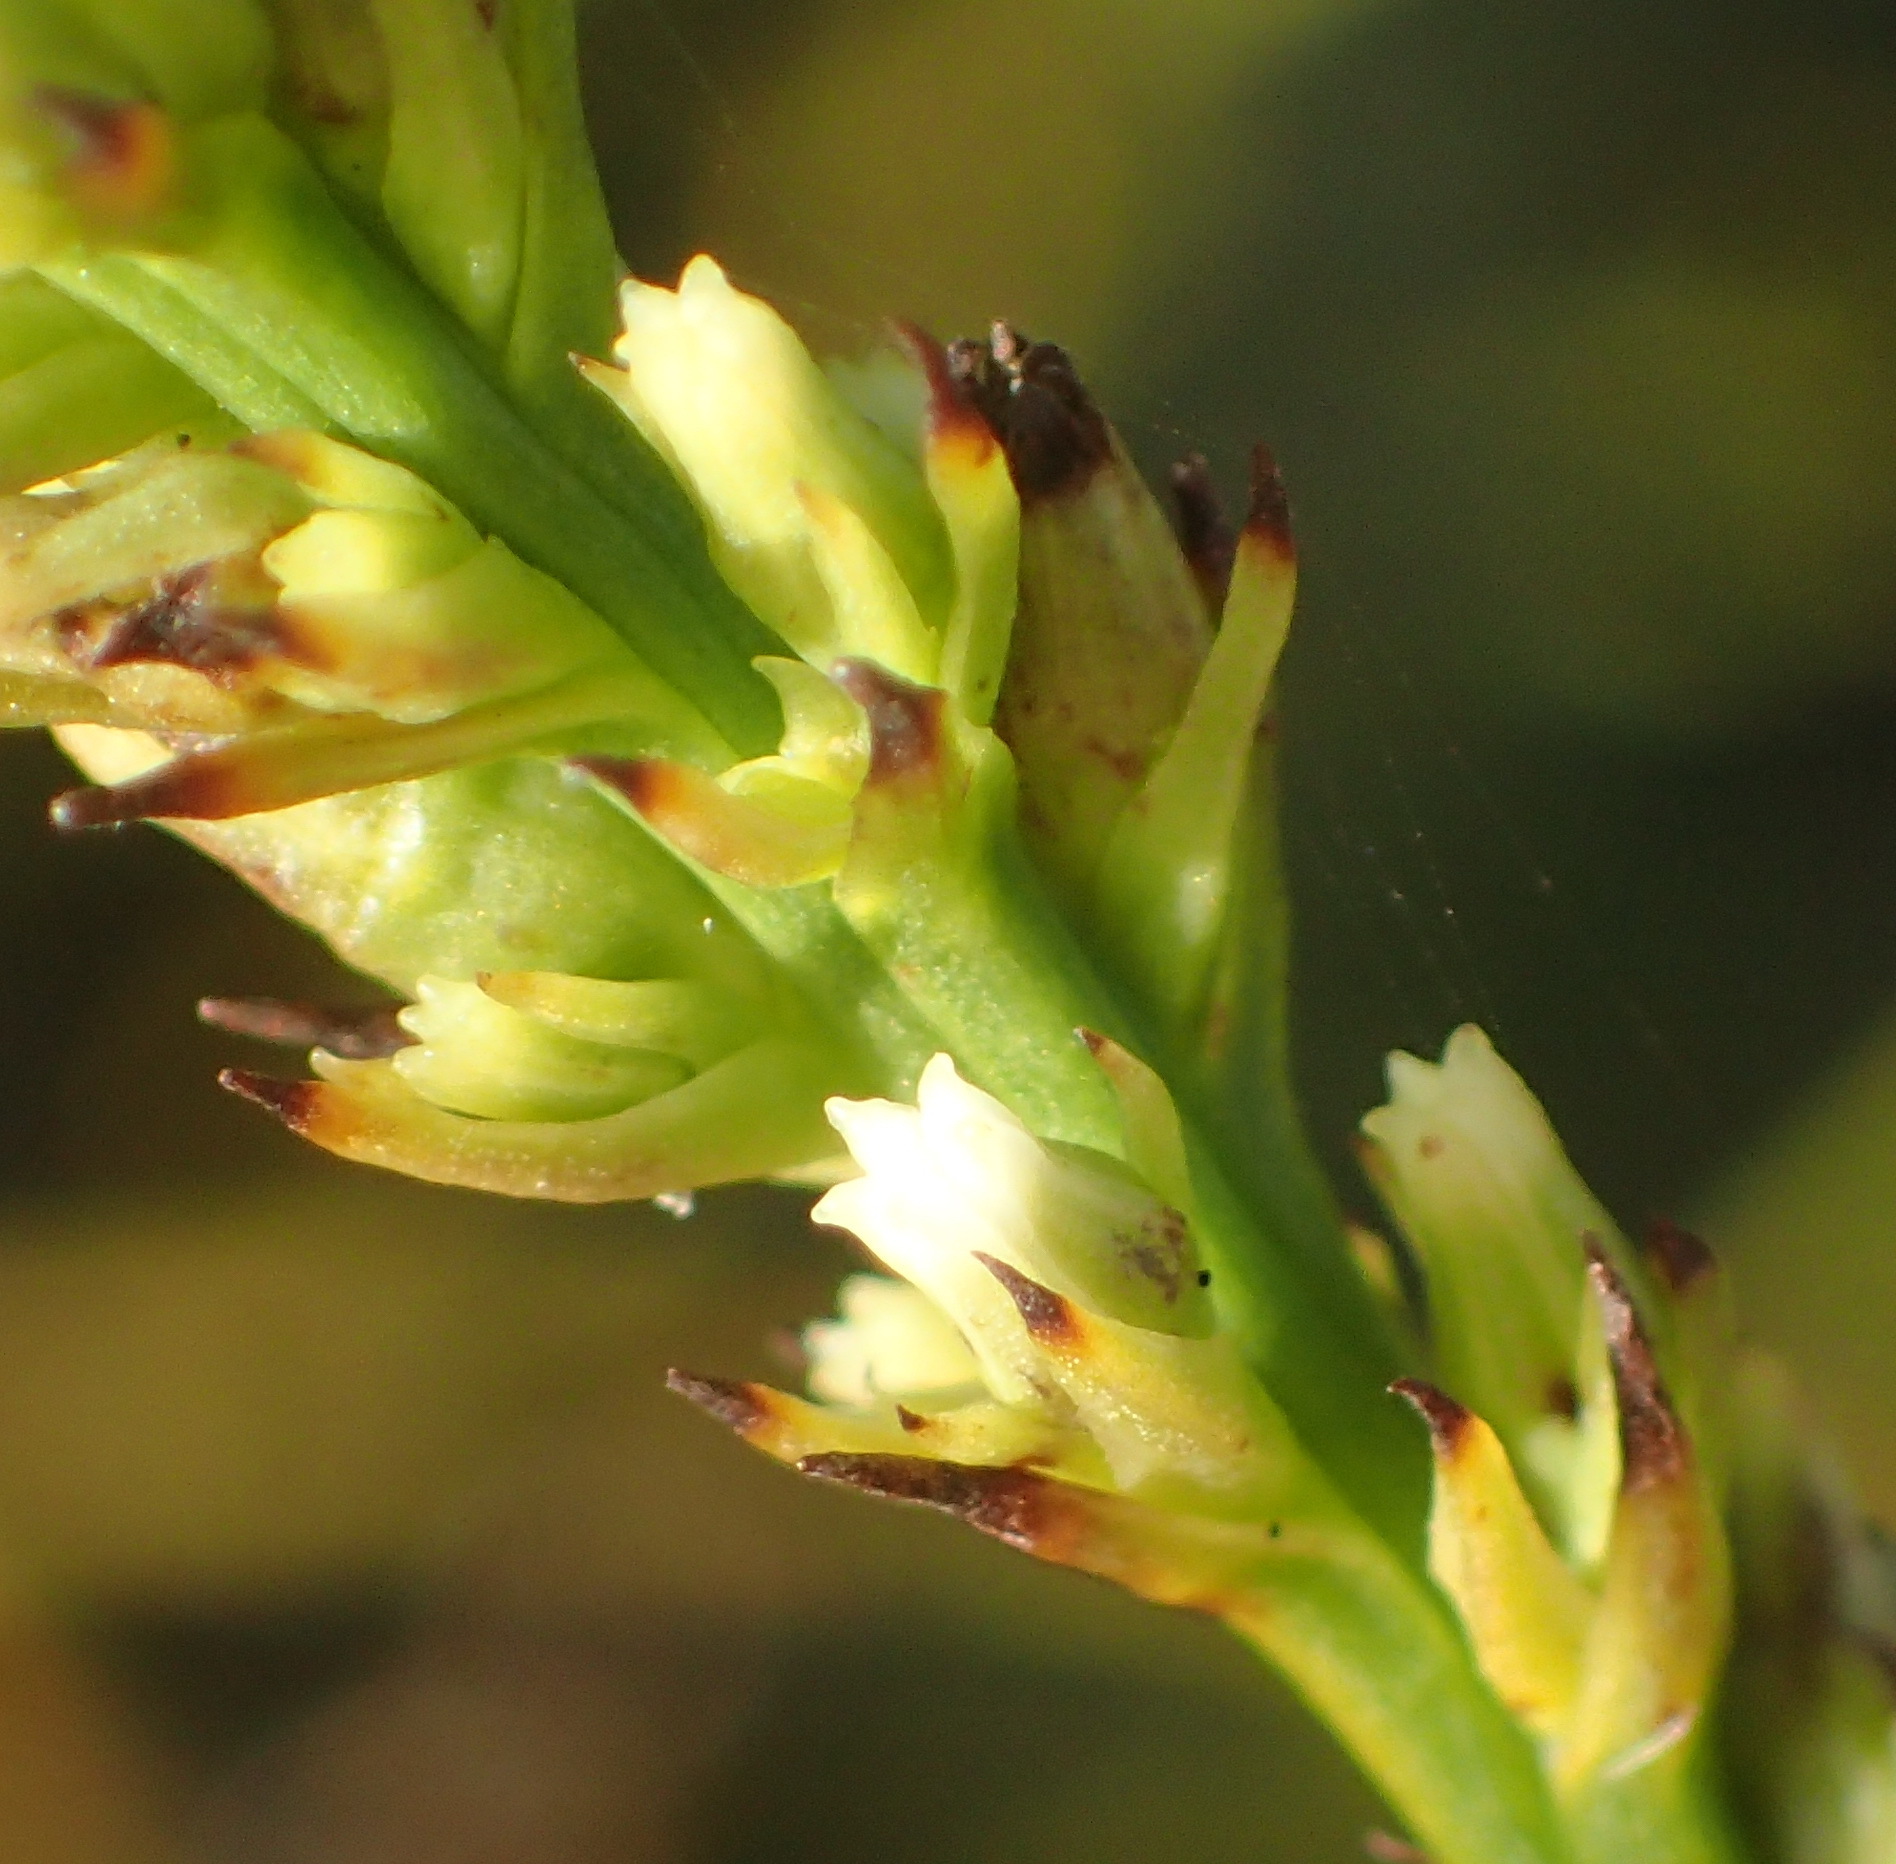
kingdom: Plantae
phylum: Tracheophyta
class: Magnoliopsida
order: Santalales
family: Thesiaceae
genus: Thesium
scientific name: Thesium spicatum
